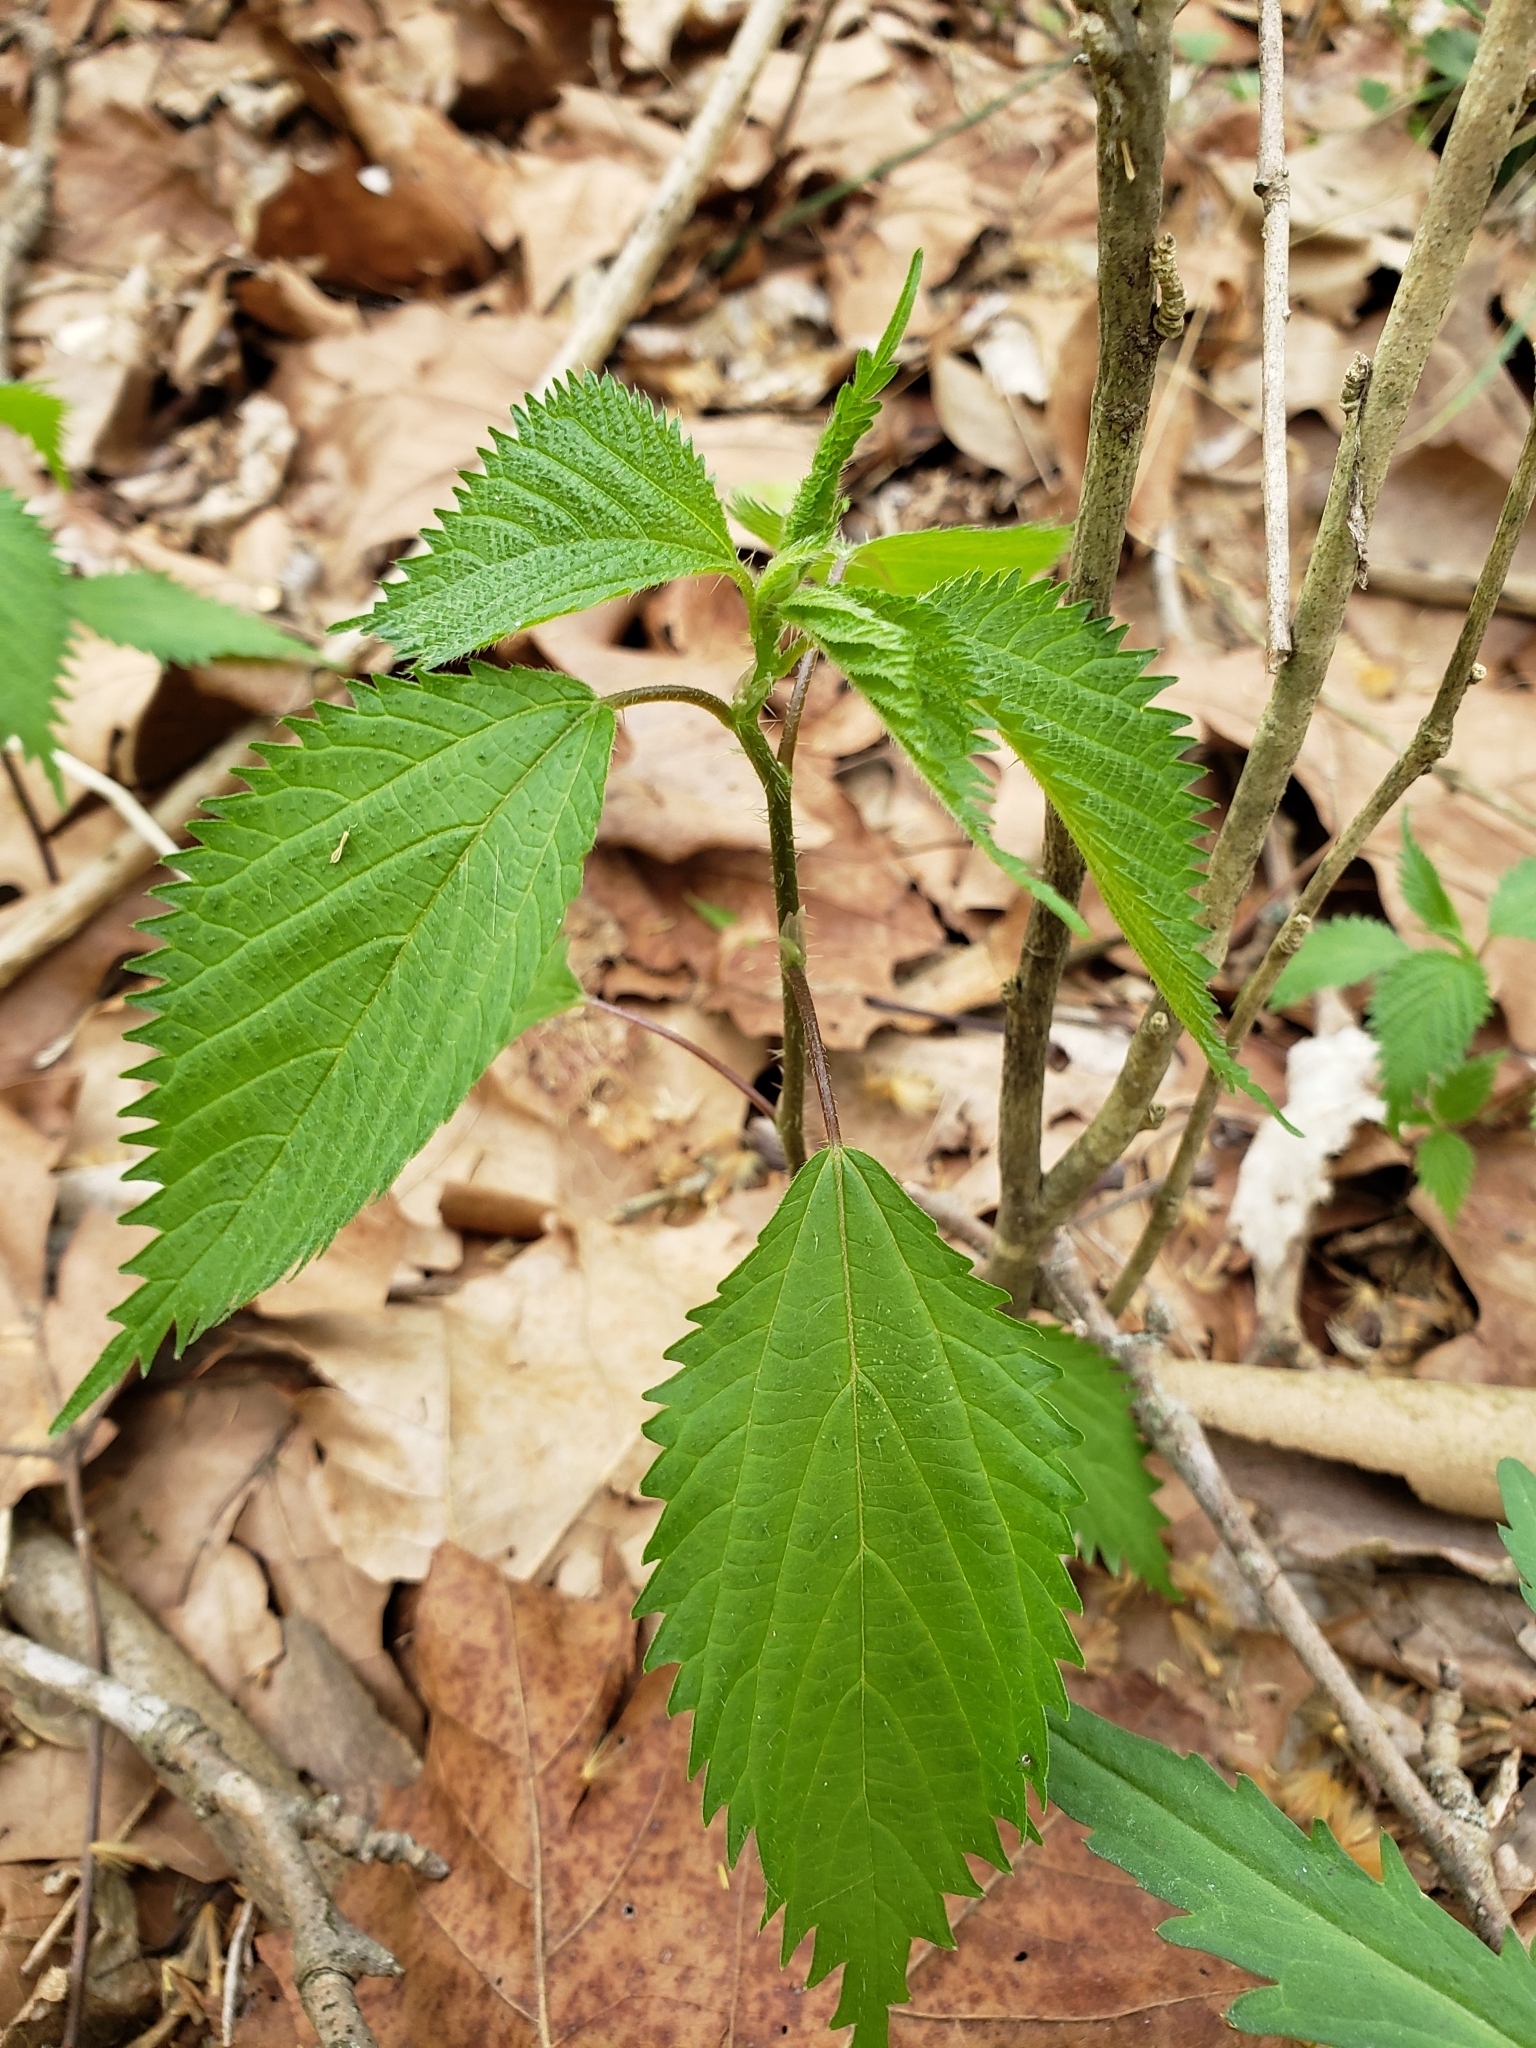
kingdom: Plantae
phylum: Tracheophyta
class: Magnoliopsida
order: Rosales
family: Urticaceae
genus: Urtica
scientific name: Urtica dioica
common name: Common nettle
